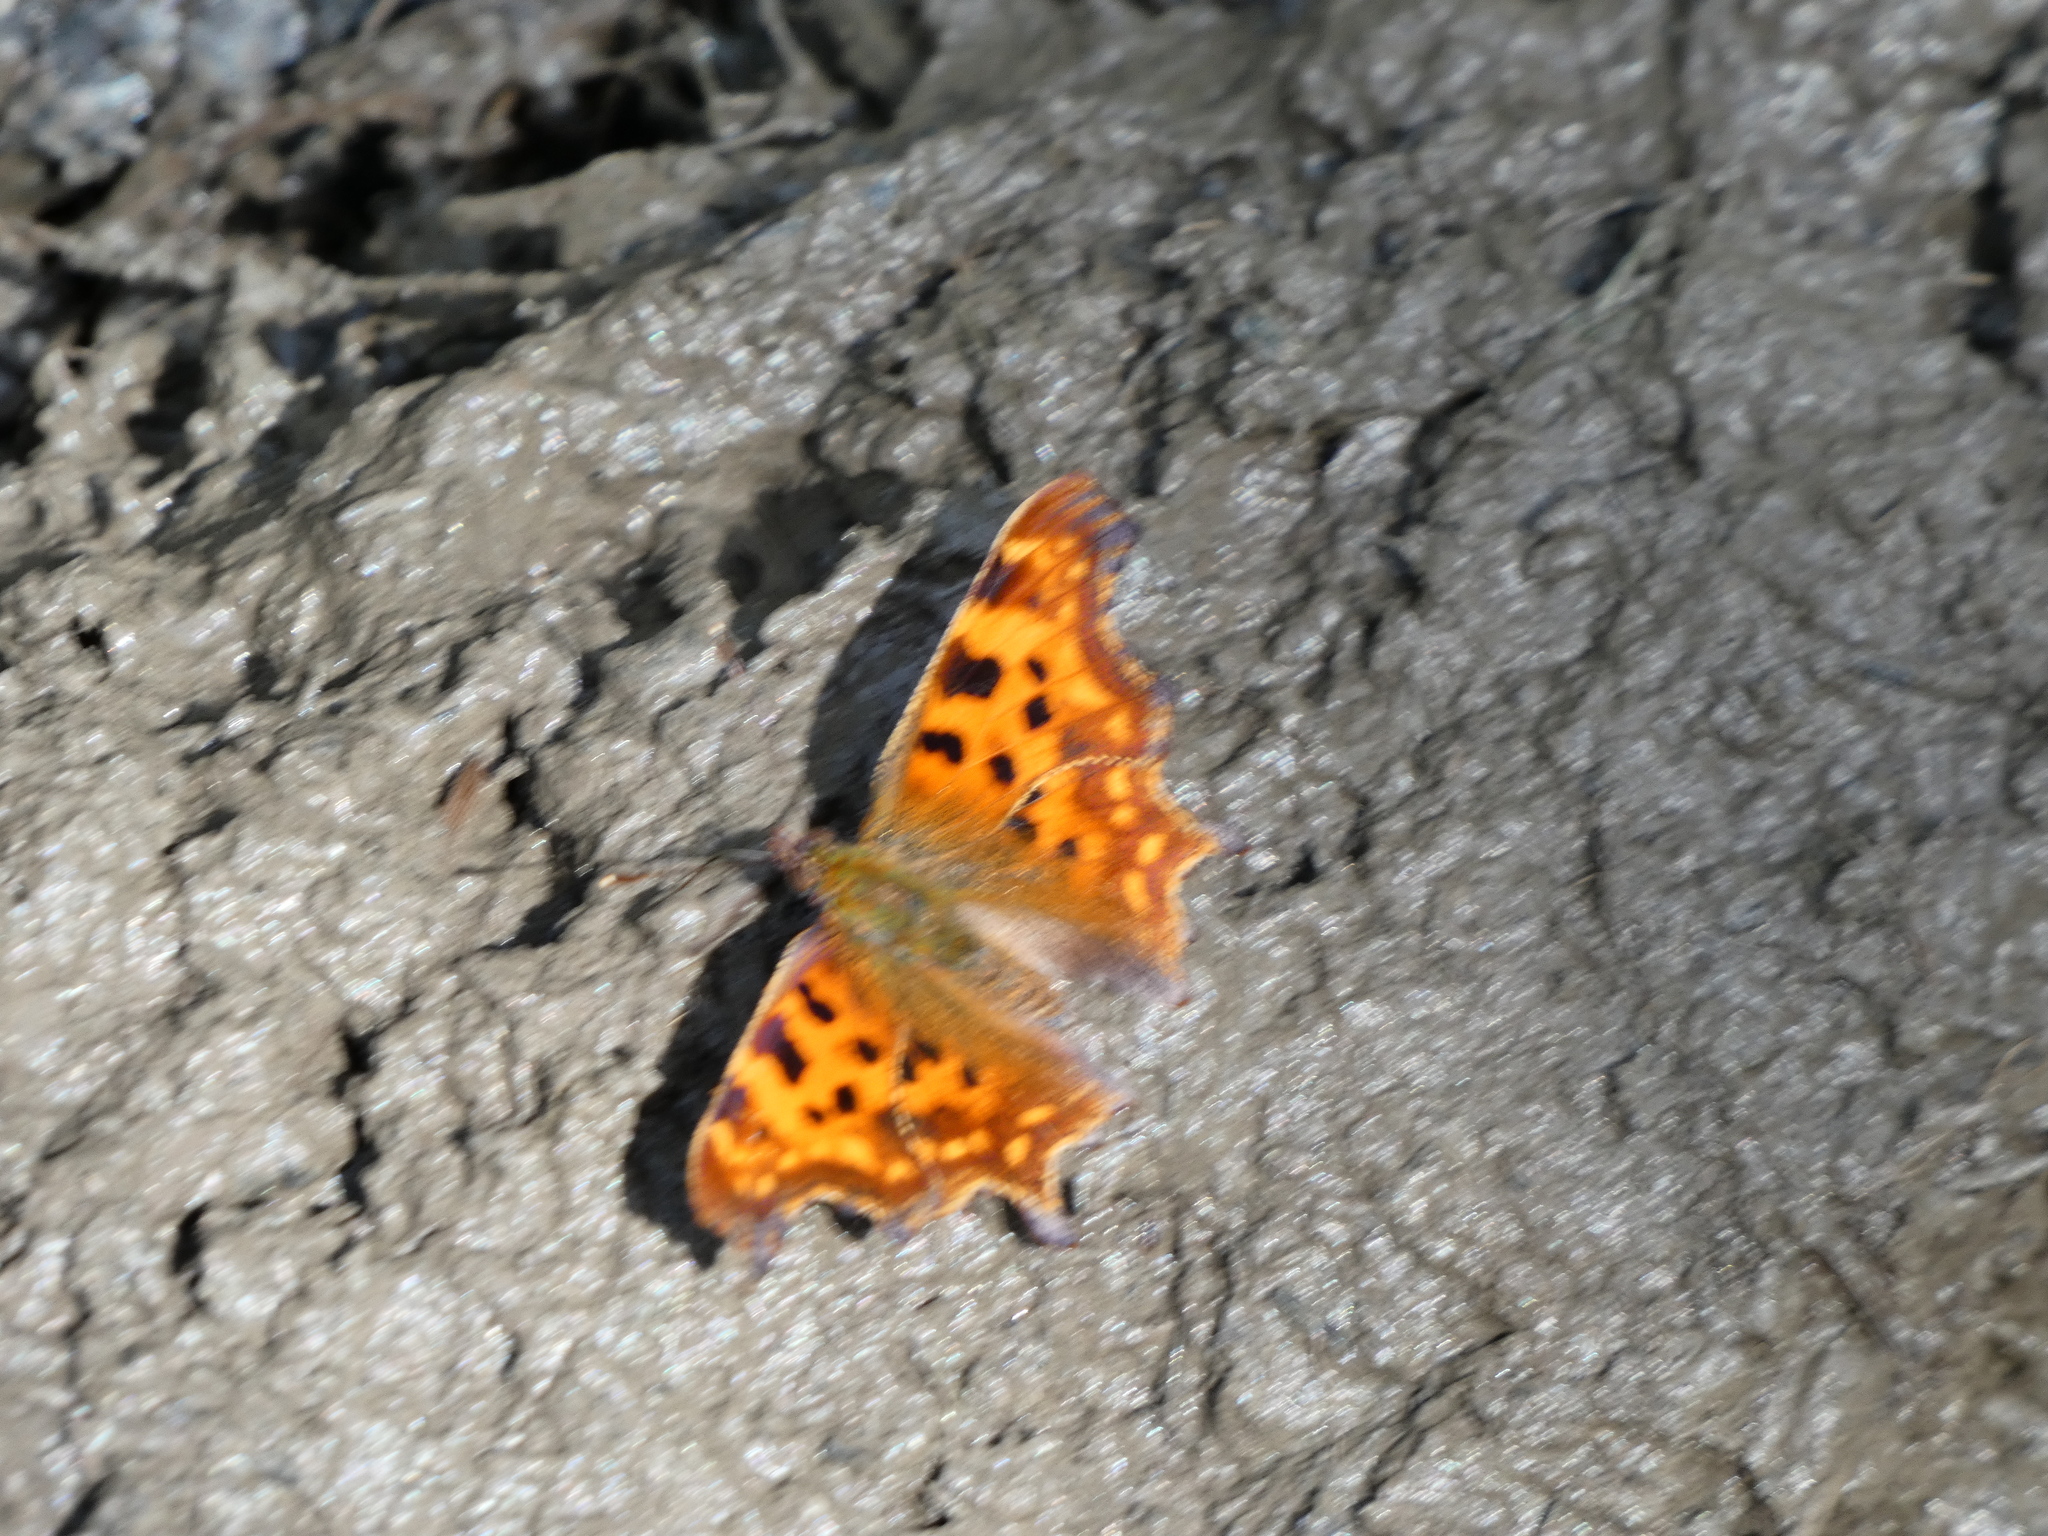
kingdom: Animalia
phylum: Arthropoda
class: Insecta
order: Lepidoptera
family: Nymphalidae
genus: Polygonia
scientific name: Polygonia c-album
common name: Comma
